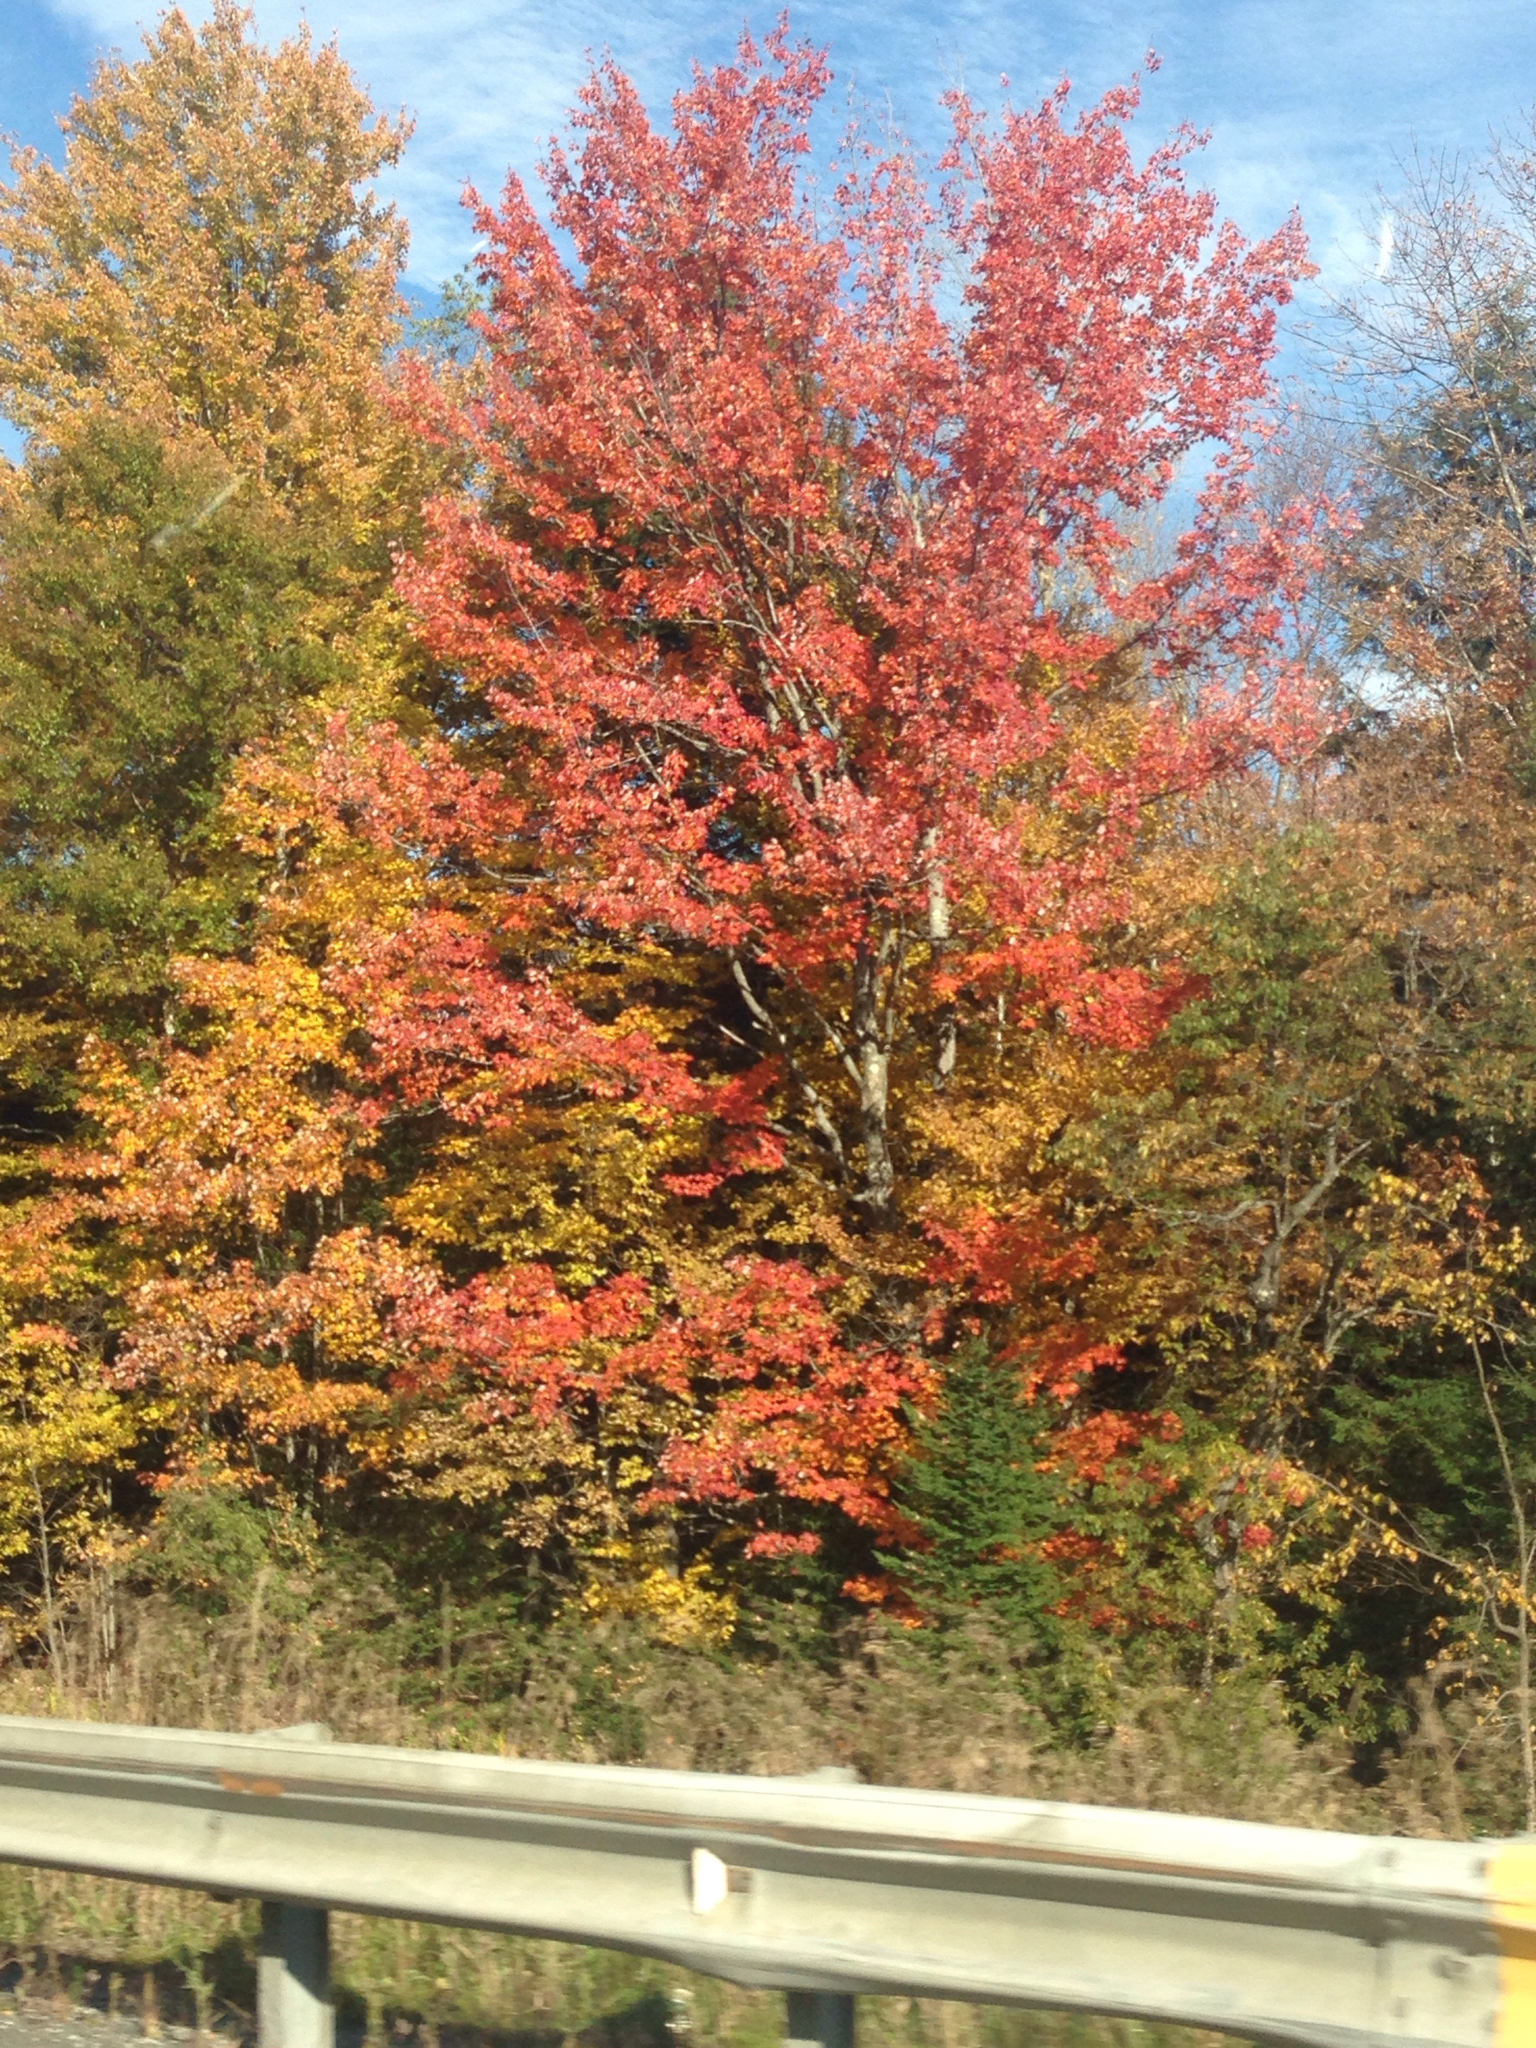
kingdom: Plantae
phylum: Tracheophyta
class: Magnoliopsida
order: Sapindales
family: Sapindaceae
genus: Acer
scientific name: Acer rubrum
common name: Red maple
